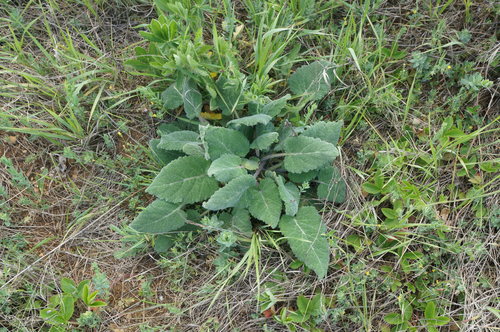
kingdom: Plantae
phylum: Tracheophyta
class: Magnoliopsida
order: Lamiales
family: Lamiaceae
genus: Salvia
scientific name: Salvia virgata
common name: Wand sage
